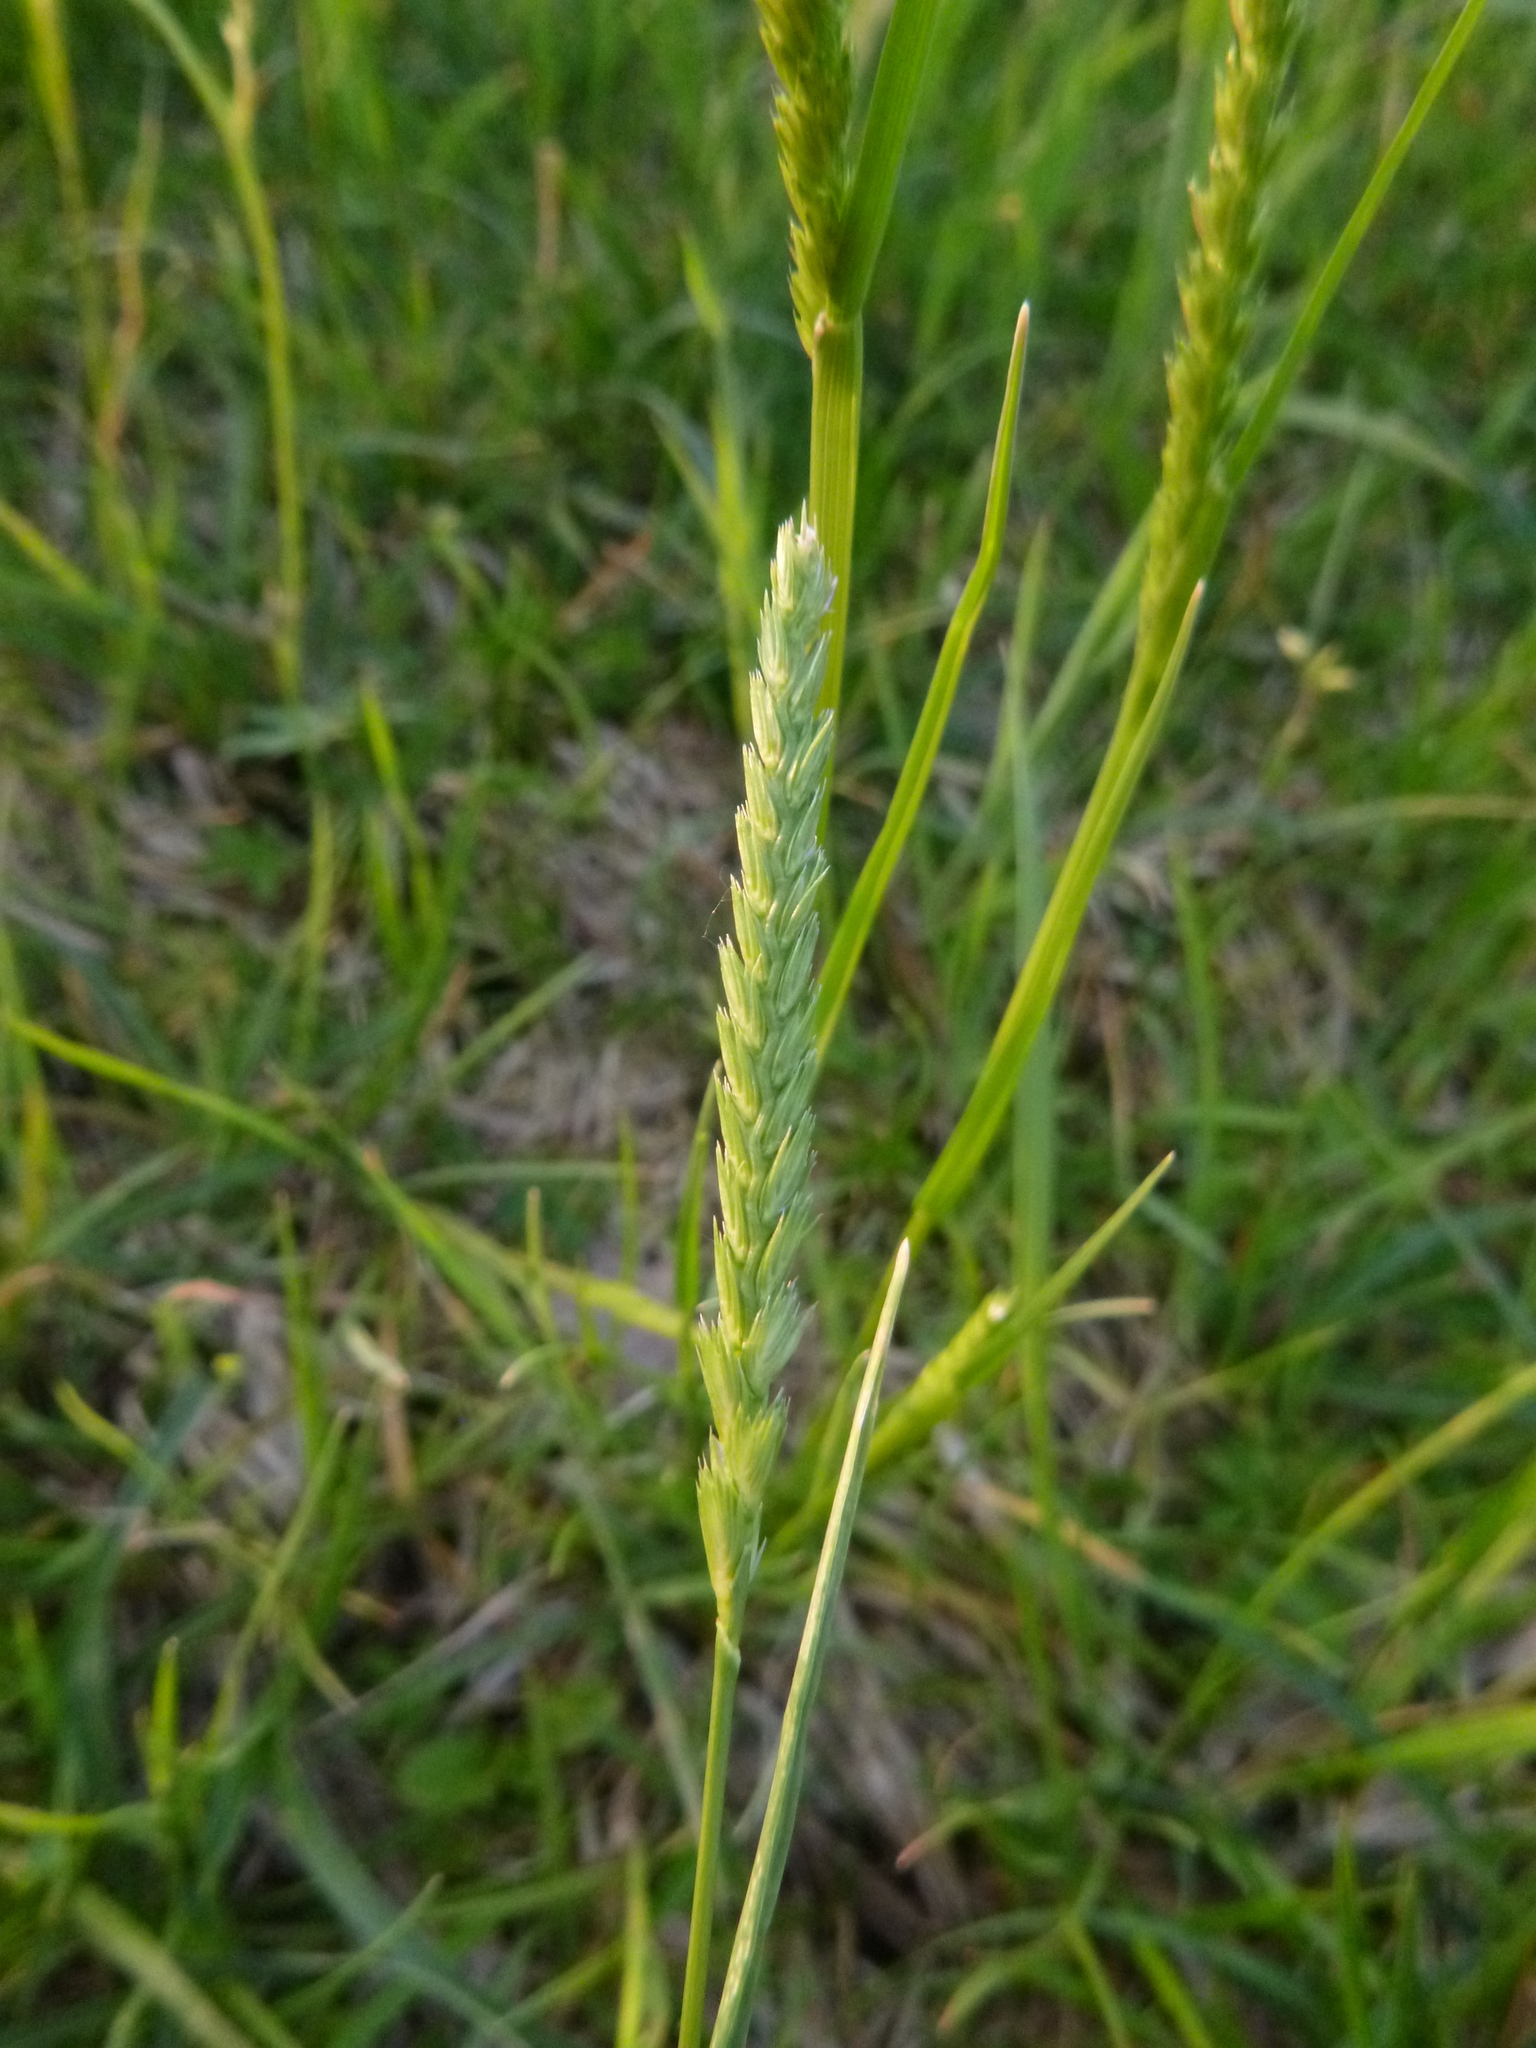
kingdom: Plantae
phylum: Tracheophyta
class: Liliopsida
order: Poales
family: Poaceae
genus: Cynosurus
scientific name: Cynosurus cristatus
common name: Crested dog's-tail
